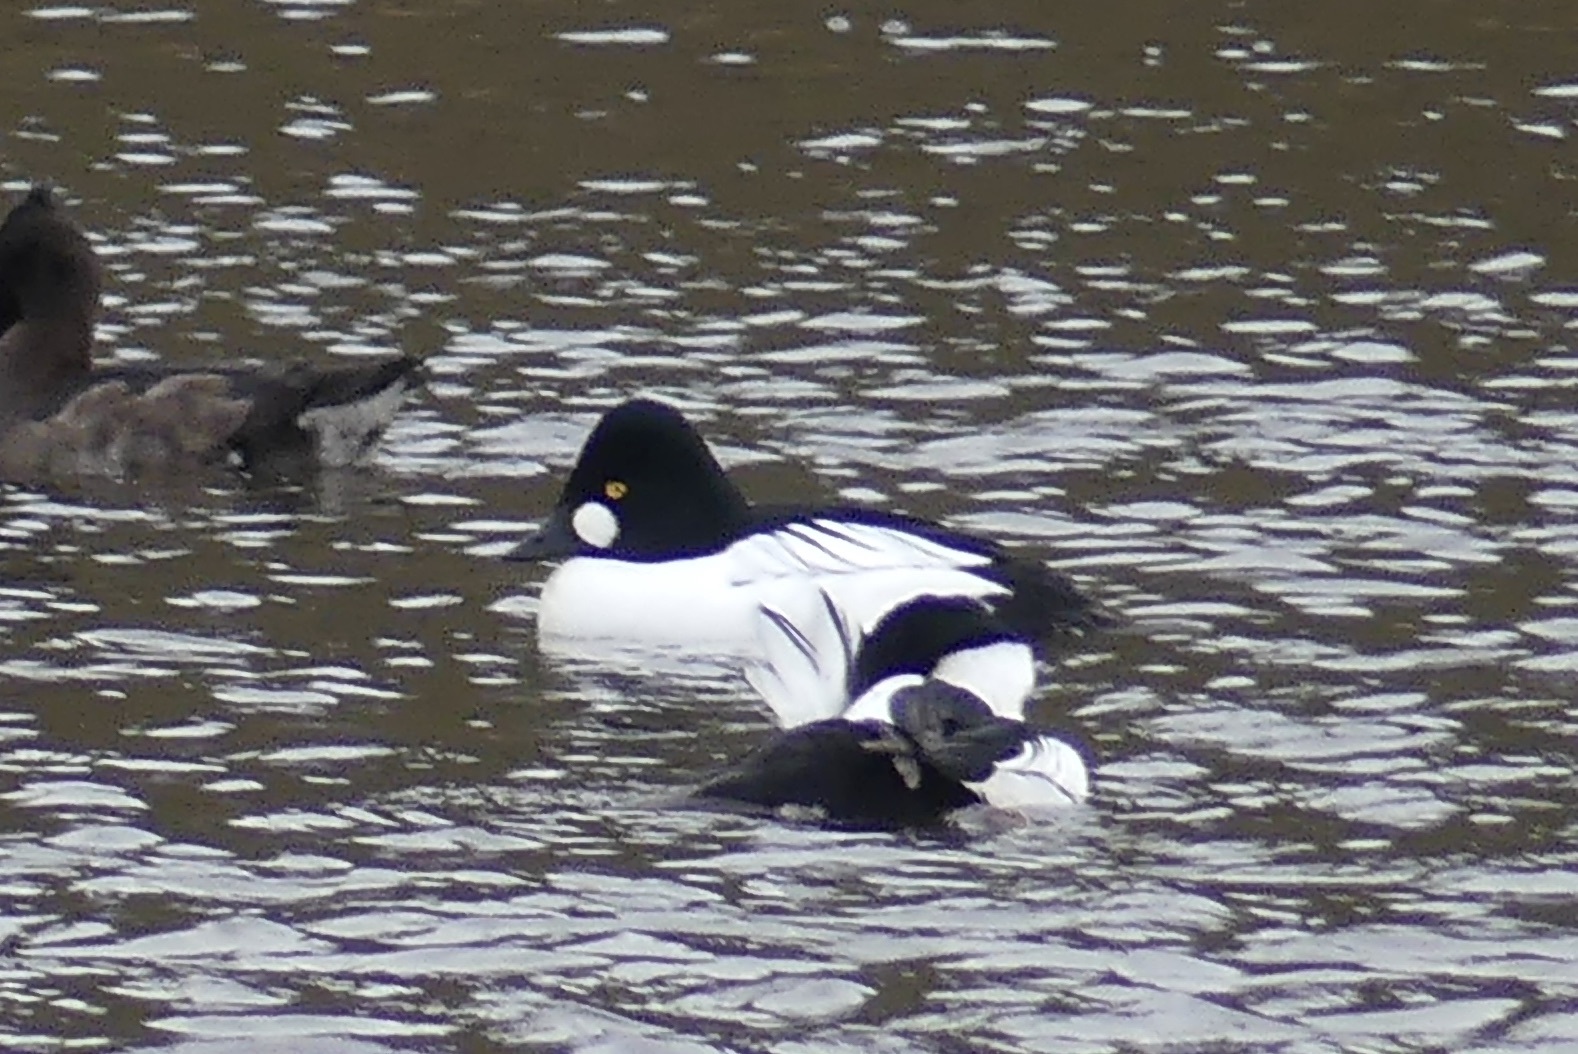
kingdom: Animalia
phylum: Chordata
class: Aves
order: Anseriformes
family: Anatidae
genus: Bucephala
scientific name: Bucephala clangula
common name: Common goldeneye
